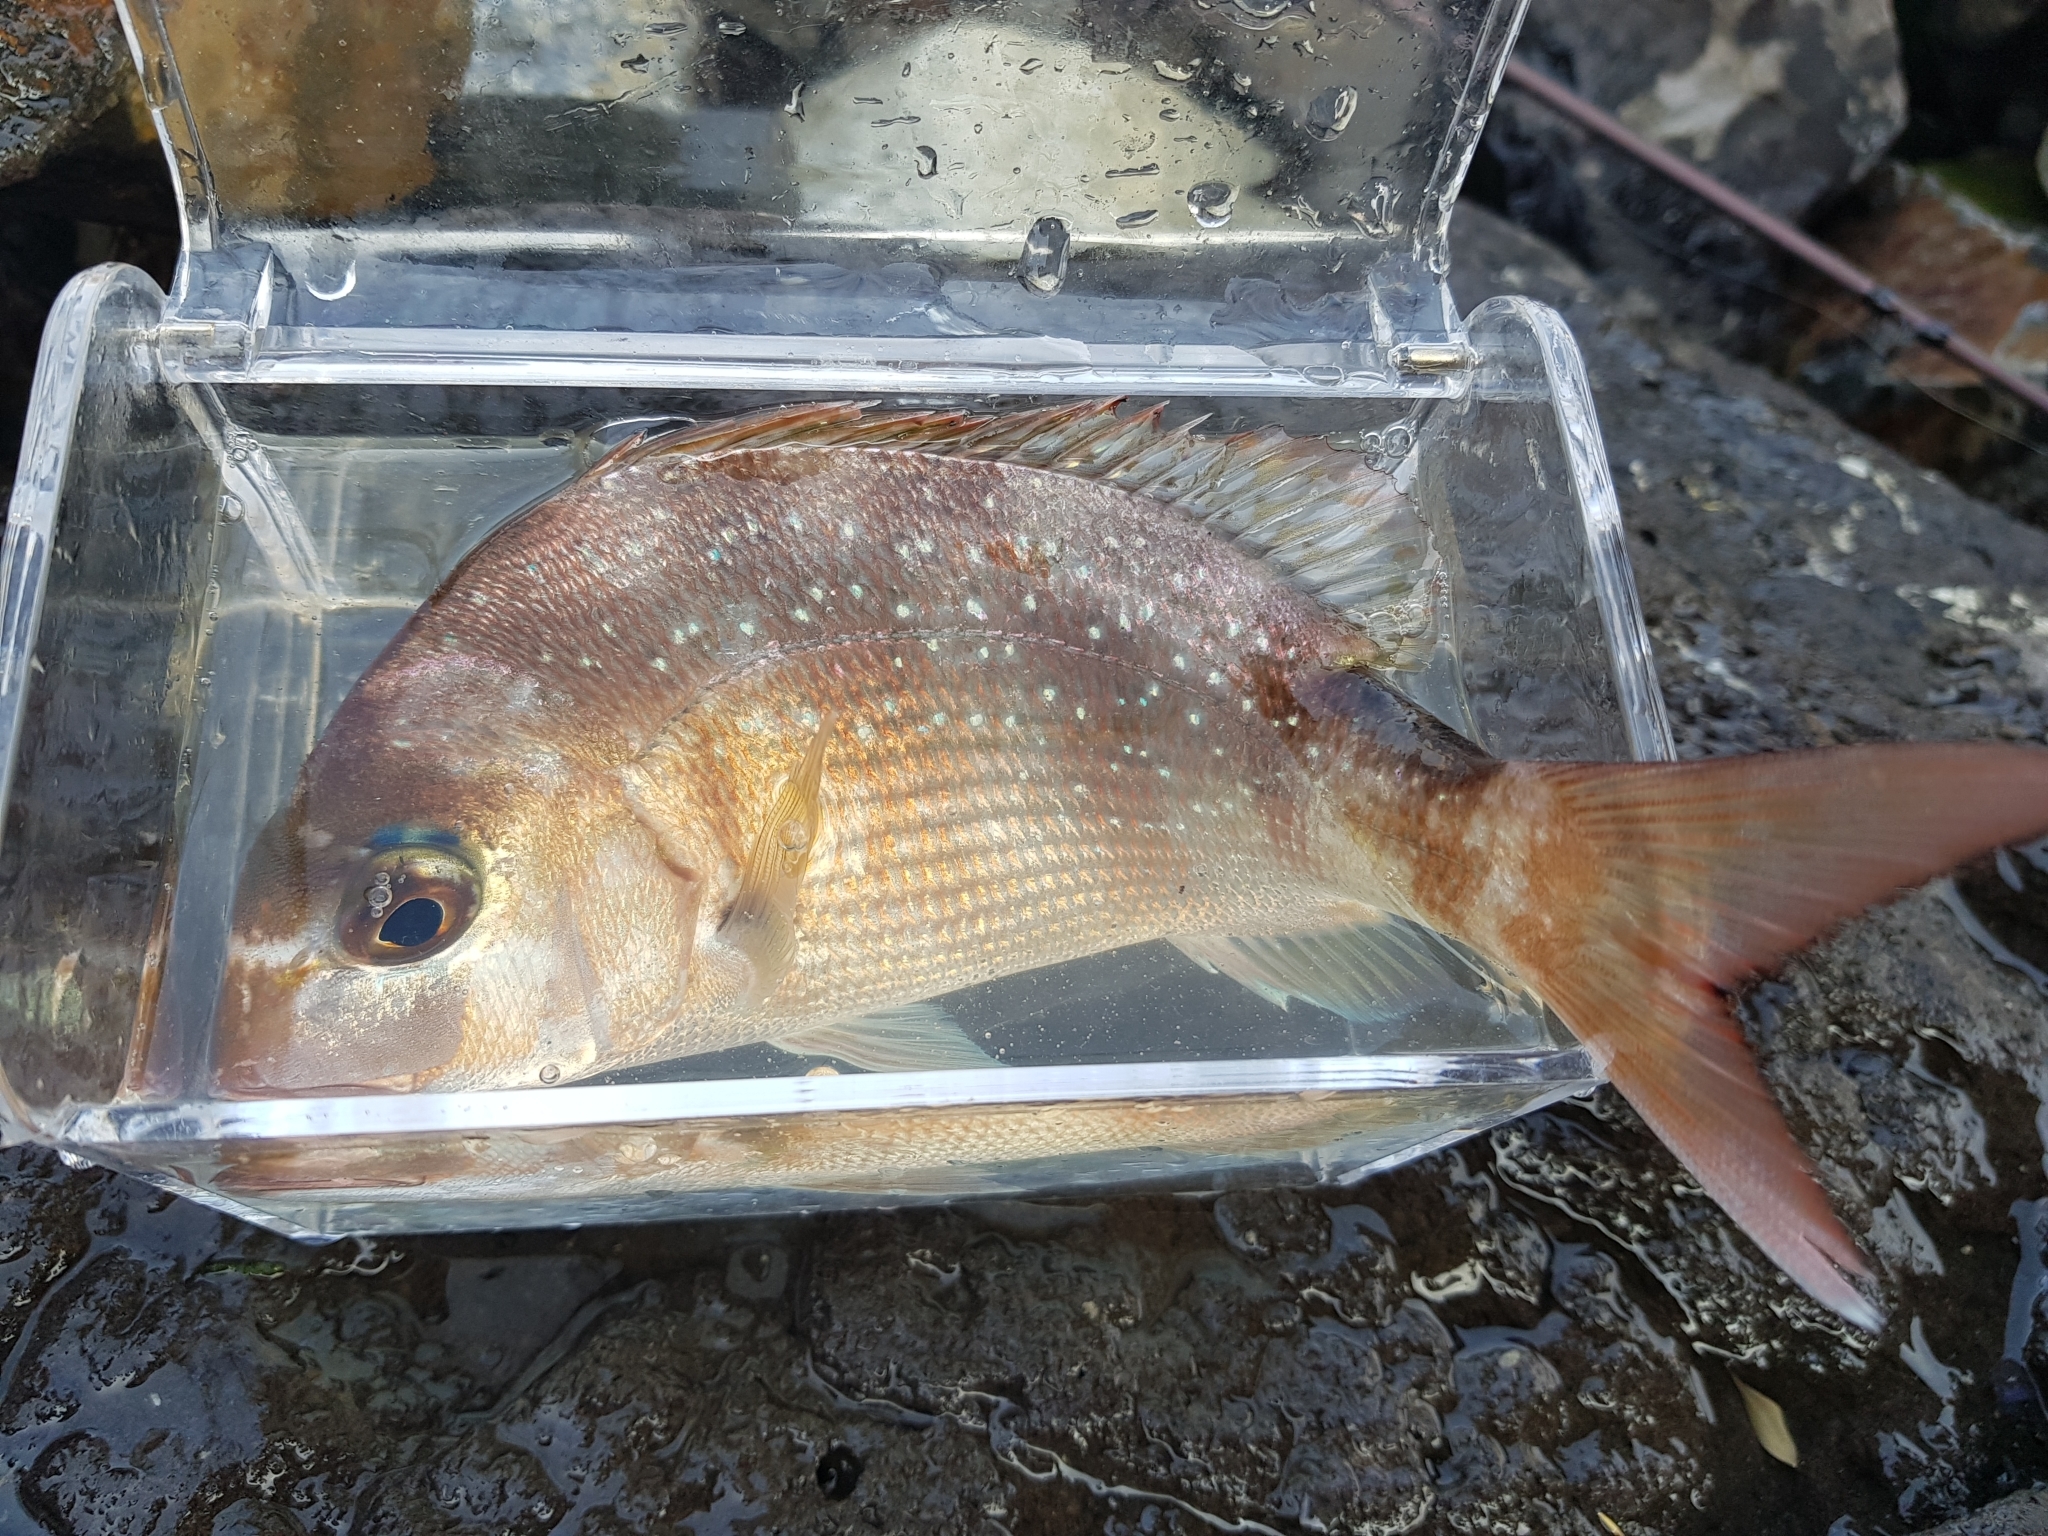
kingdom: Animalia
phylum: Chordata
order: Perciformes
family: Sparidae
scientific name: Sparidae
